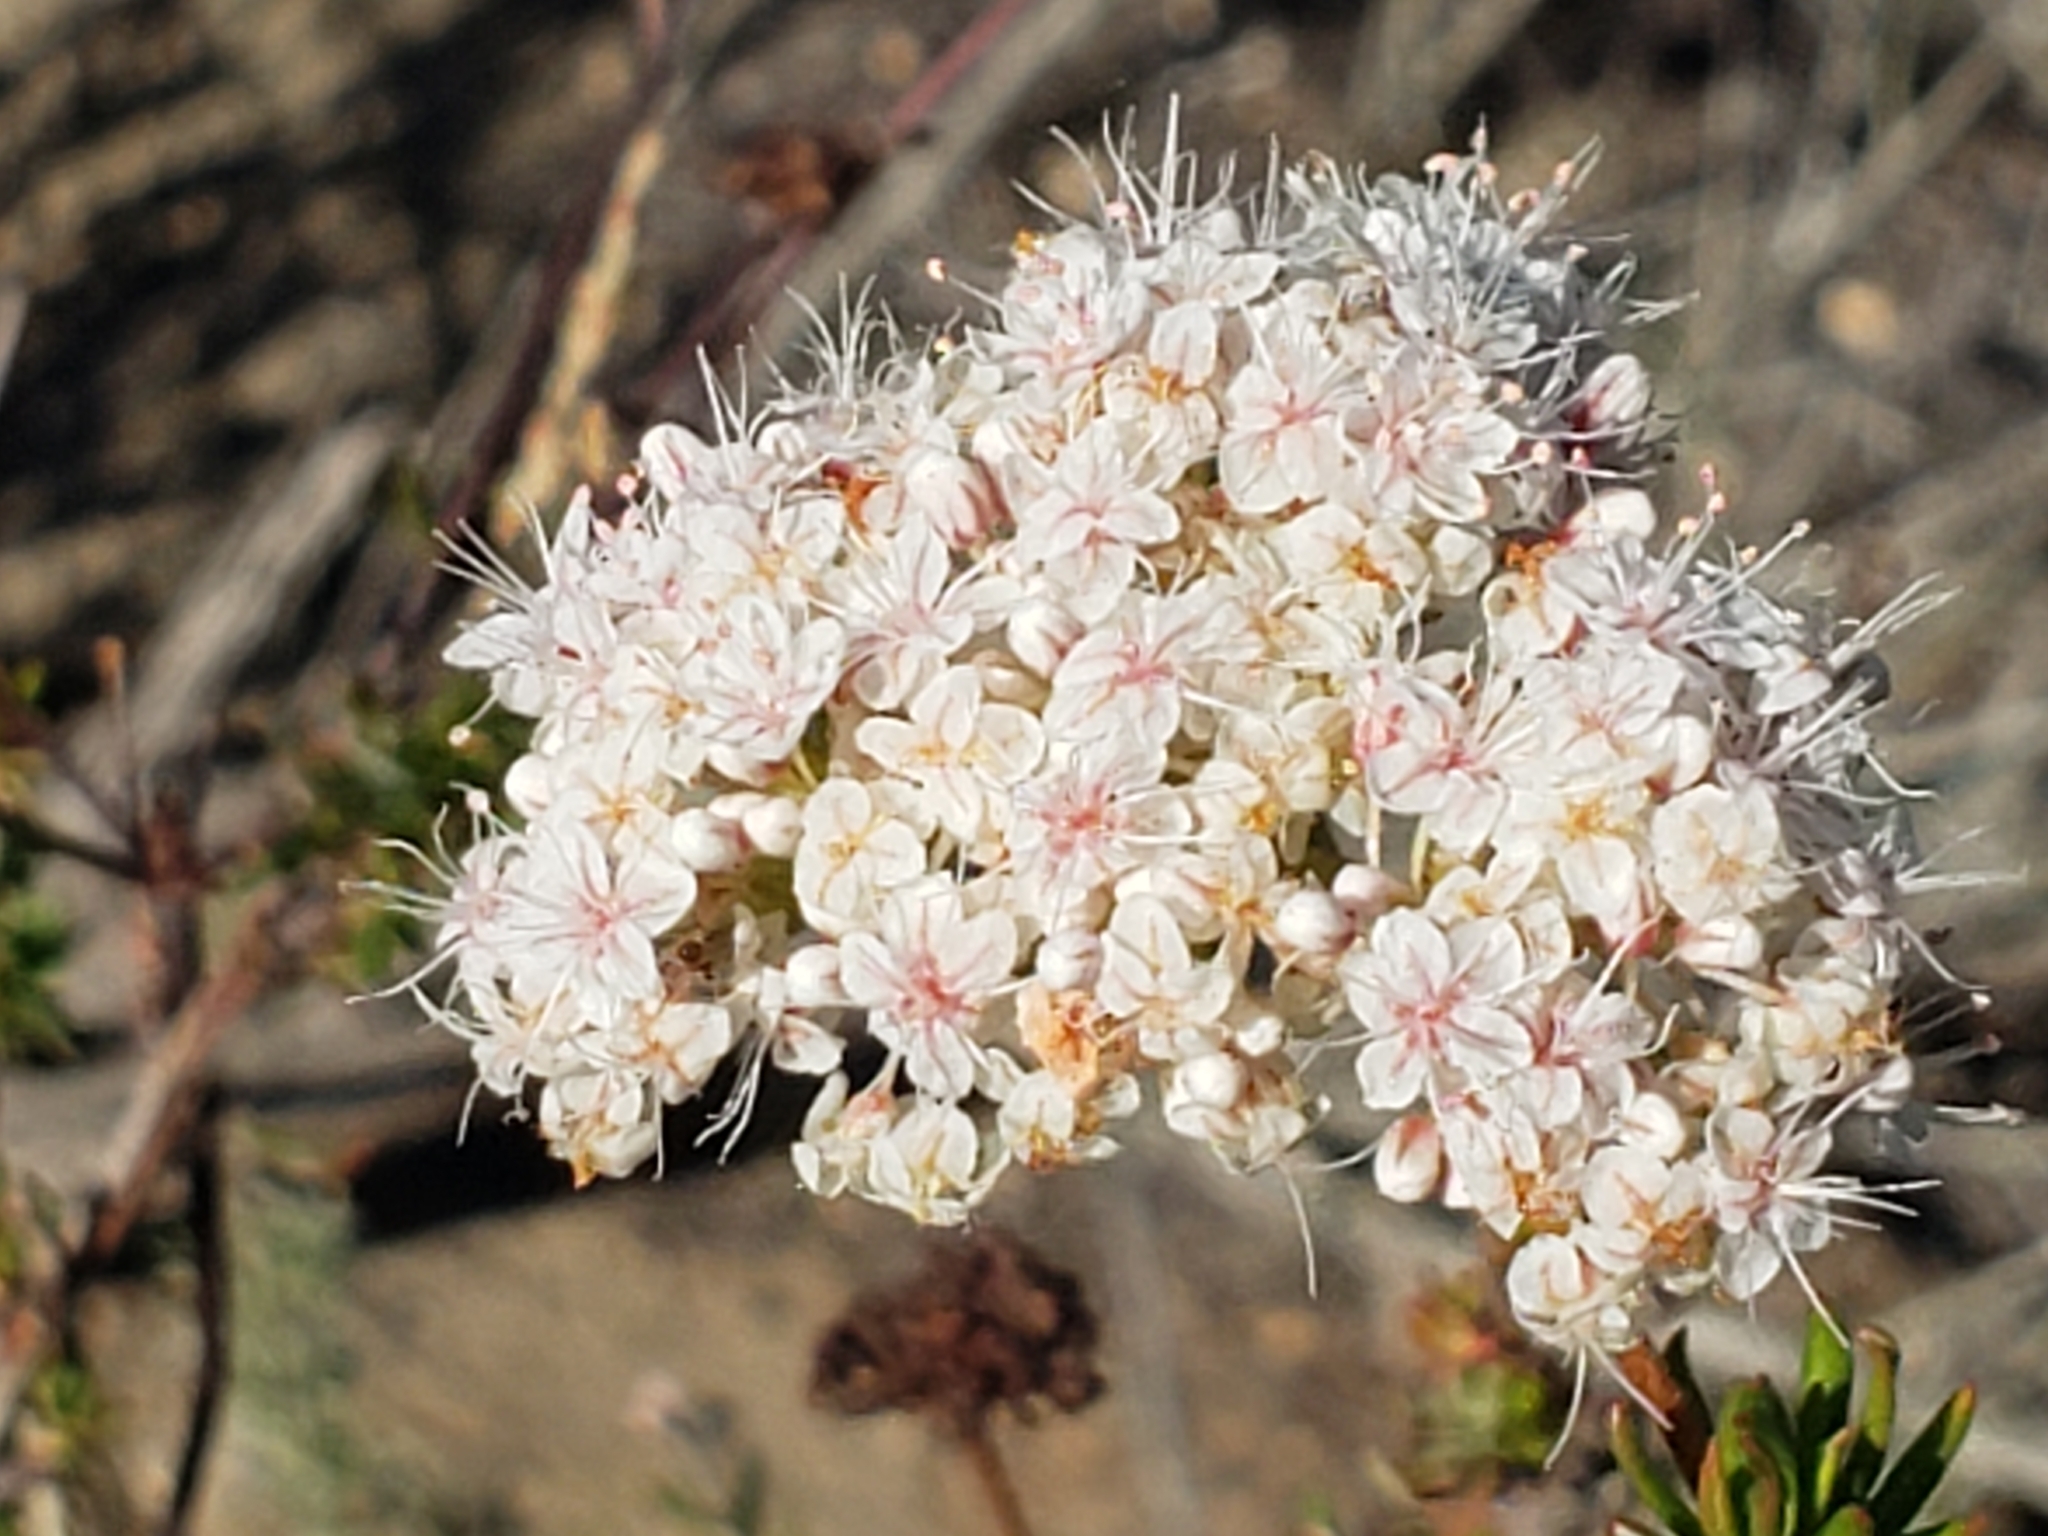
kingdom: Plantae
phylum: Tracheophyta
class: Magnoliopsida
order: Caryophyllales
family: Polygonaceae
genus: Eriogonum
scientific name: Eriogonum fasciculatum
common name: California wild buckwheat
